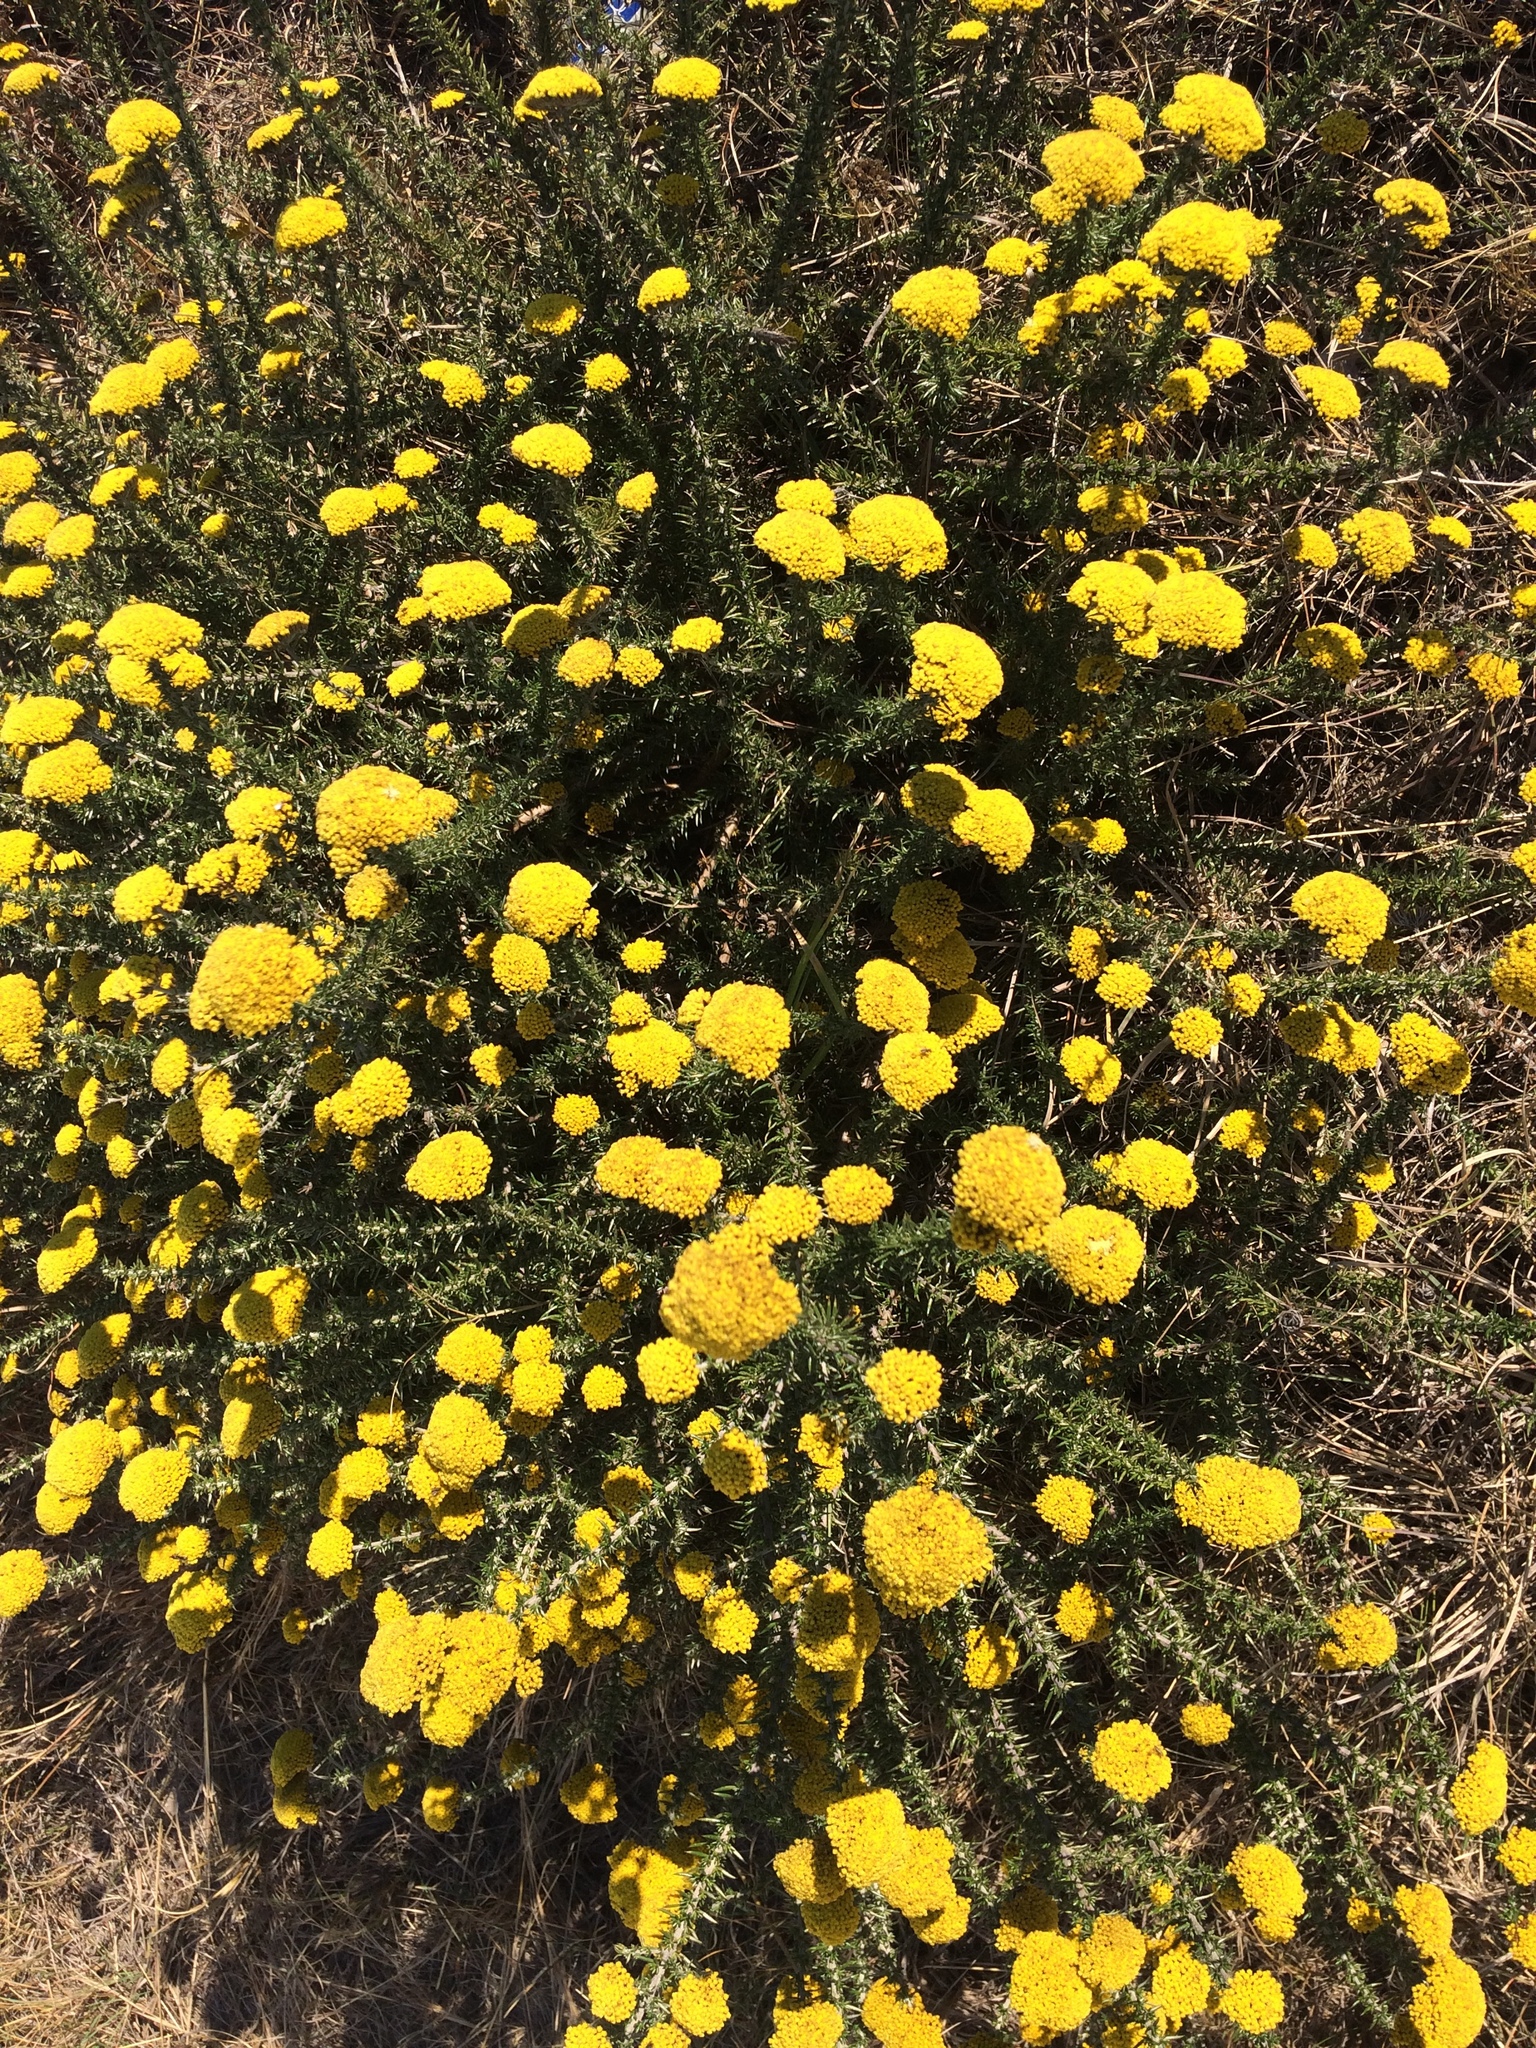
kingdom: Plantae
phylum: Tracheophyta
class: Magnoliopsida
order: Asterales
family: Asteraceae
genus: Metalasia
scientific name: Metalasia aurea
